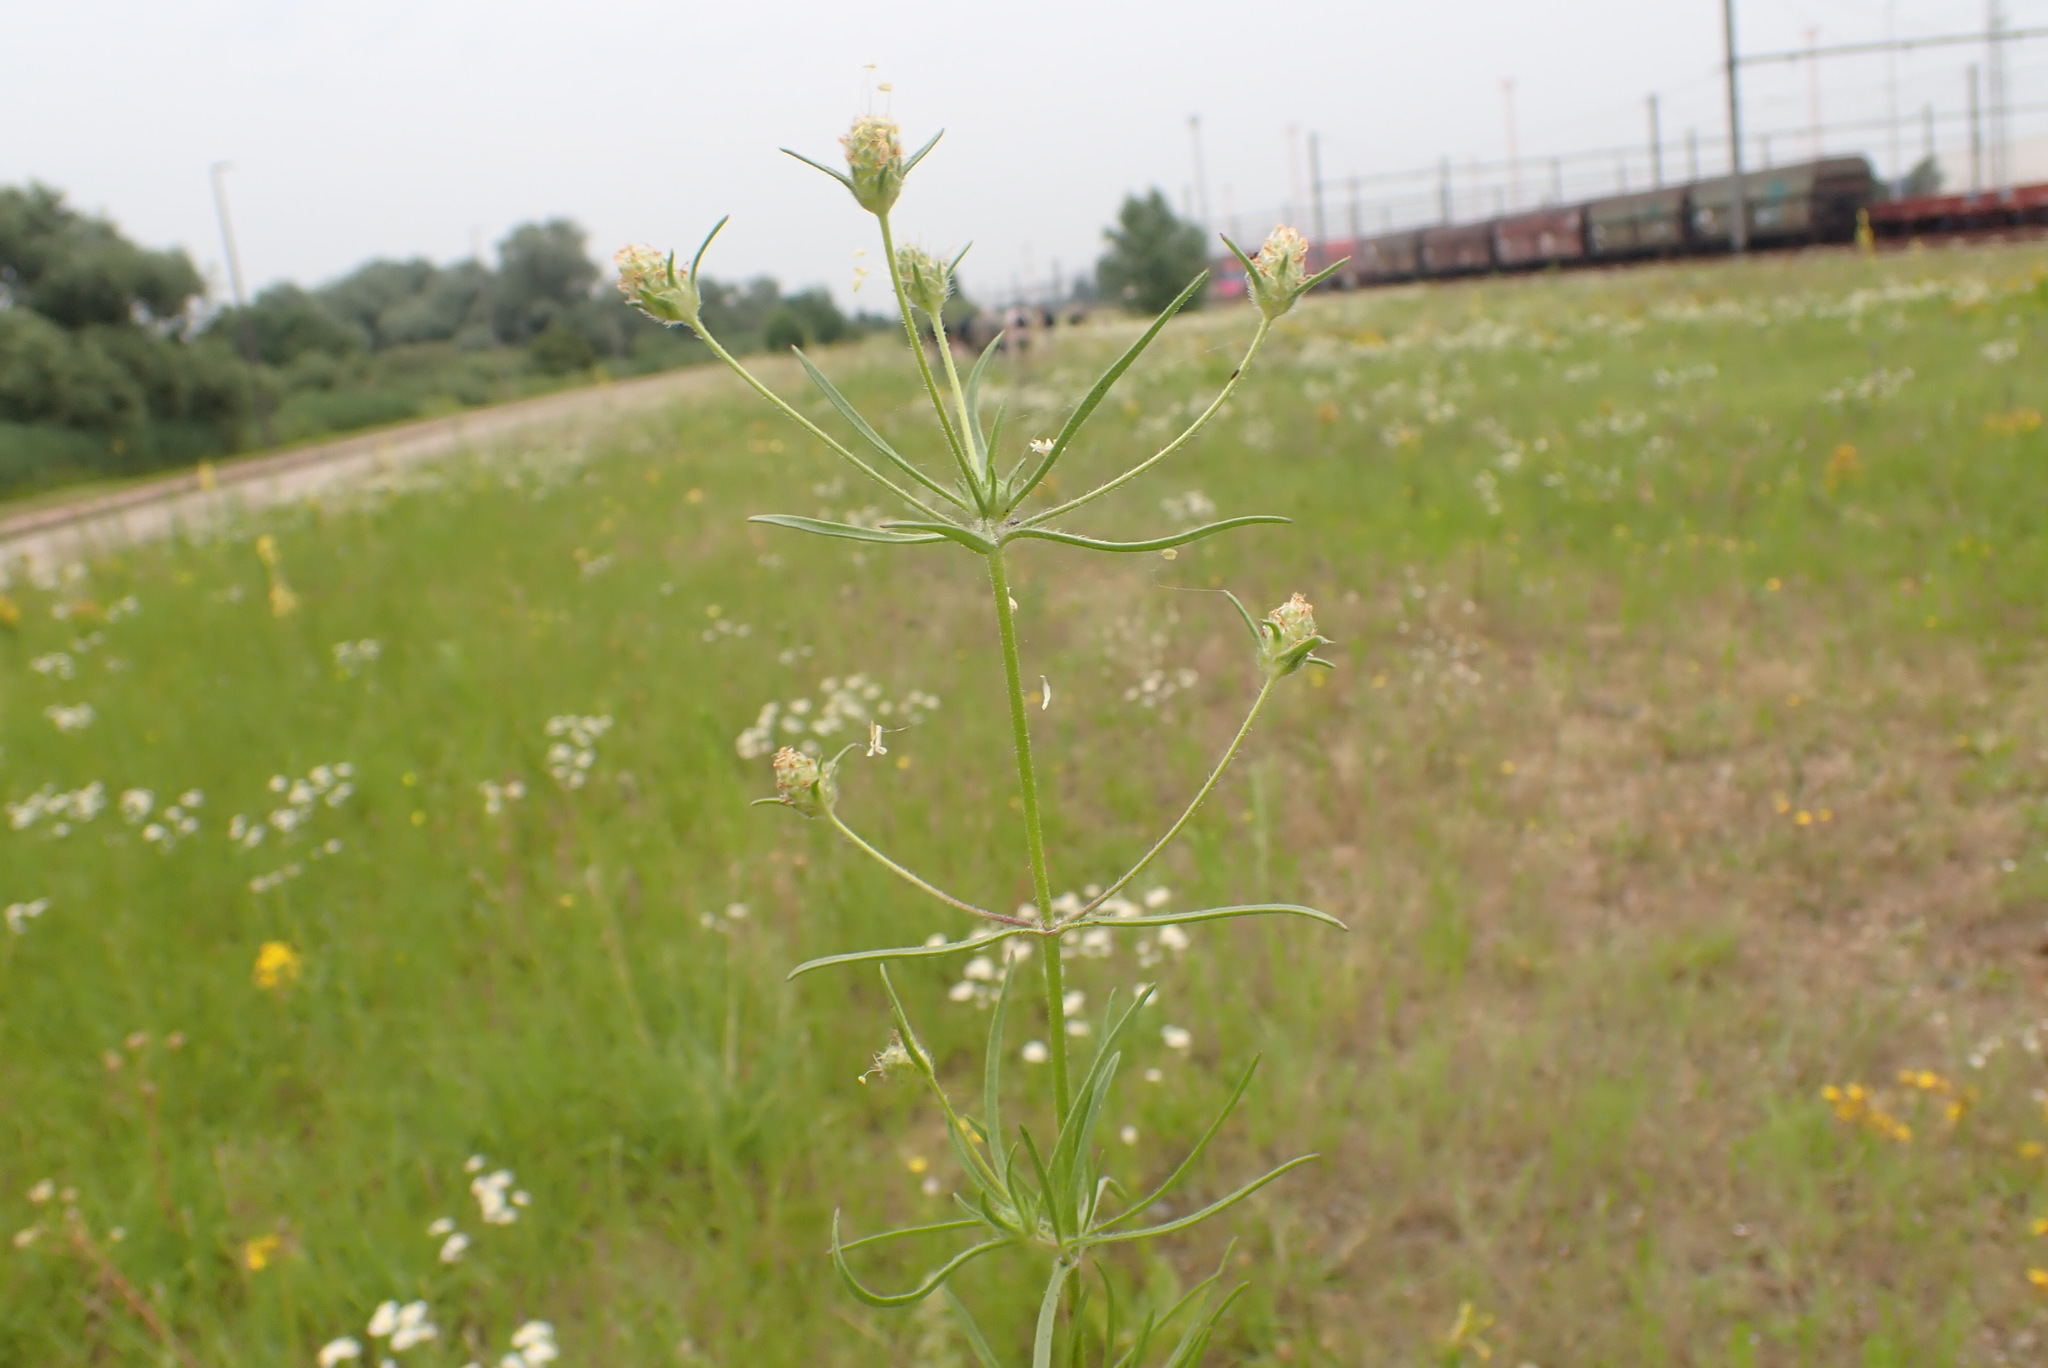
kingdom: Plantae
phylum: Tracheophyta
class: Magnoliopsida
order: Lamiales
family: Plantaginaceae
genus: Plantago
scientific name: Plantago arenaria
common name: Branched plantain
